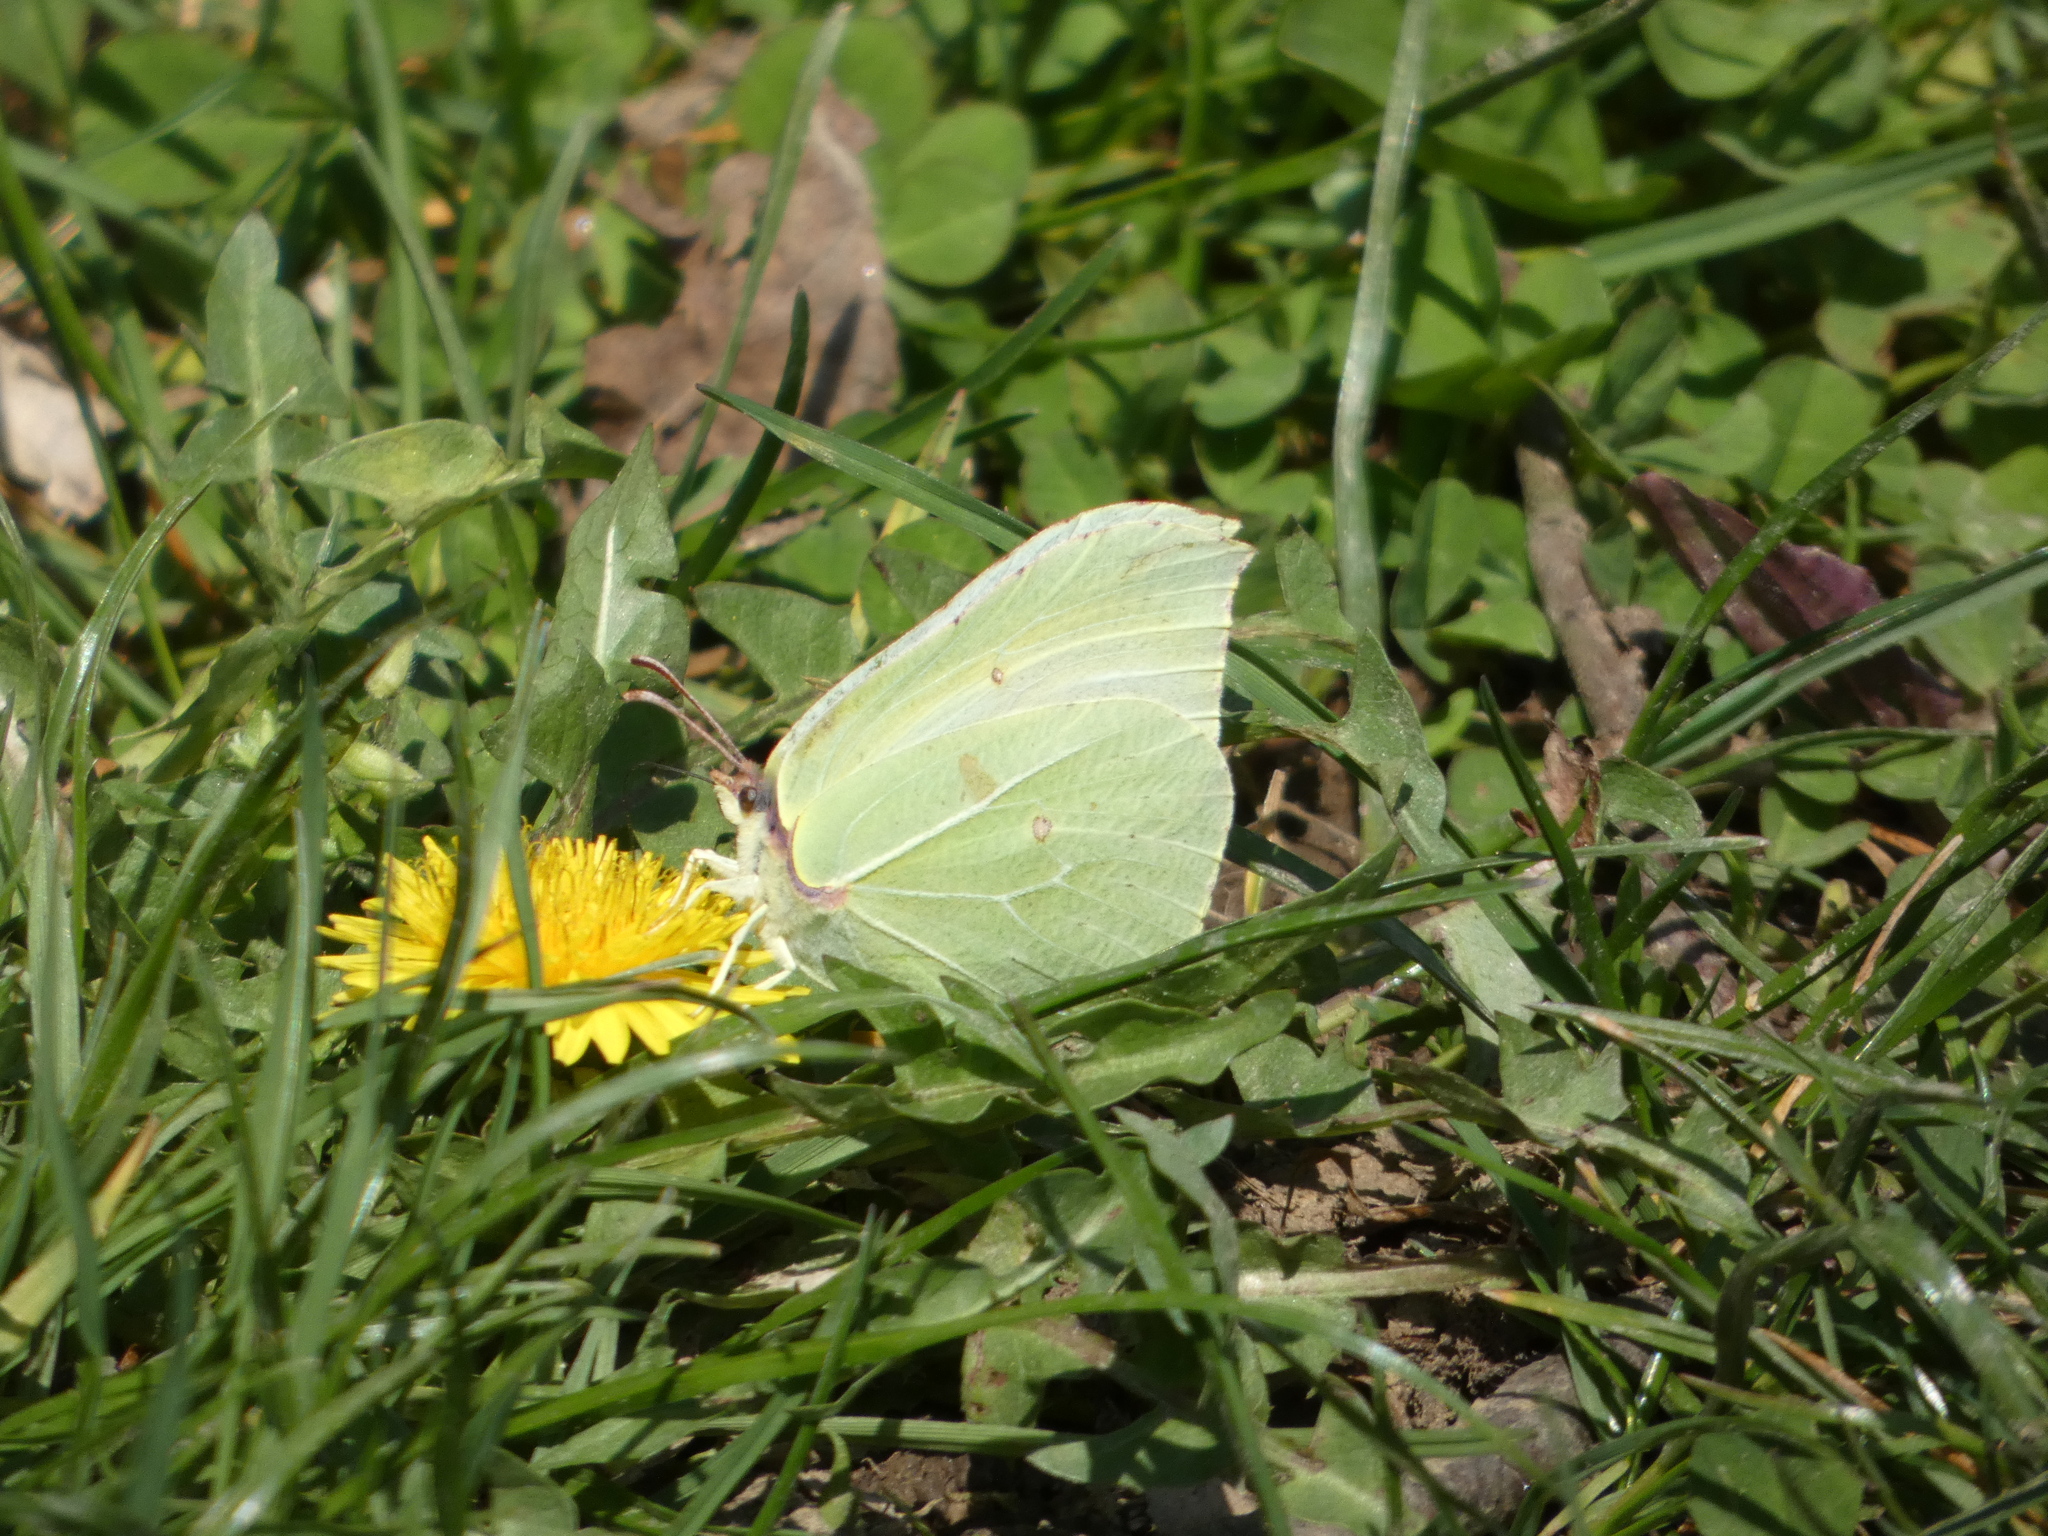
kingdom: Animalia
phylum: Arthropoda
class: Insecta
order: Lepidoptera
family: Pieridae
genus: Gonepteryx
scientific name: Gonepteryx rhamni
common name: Brimstone
